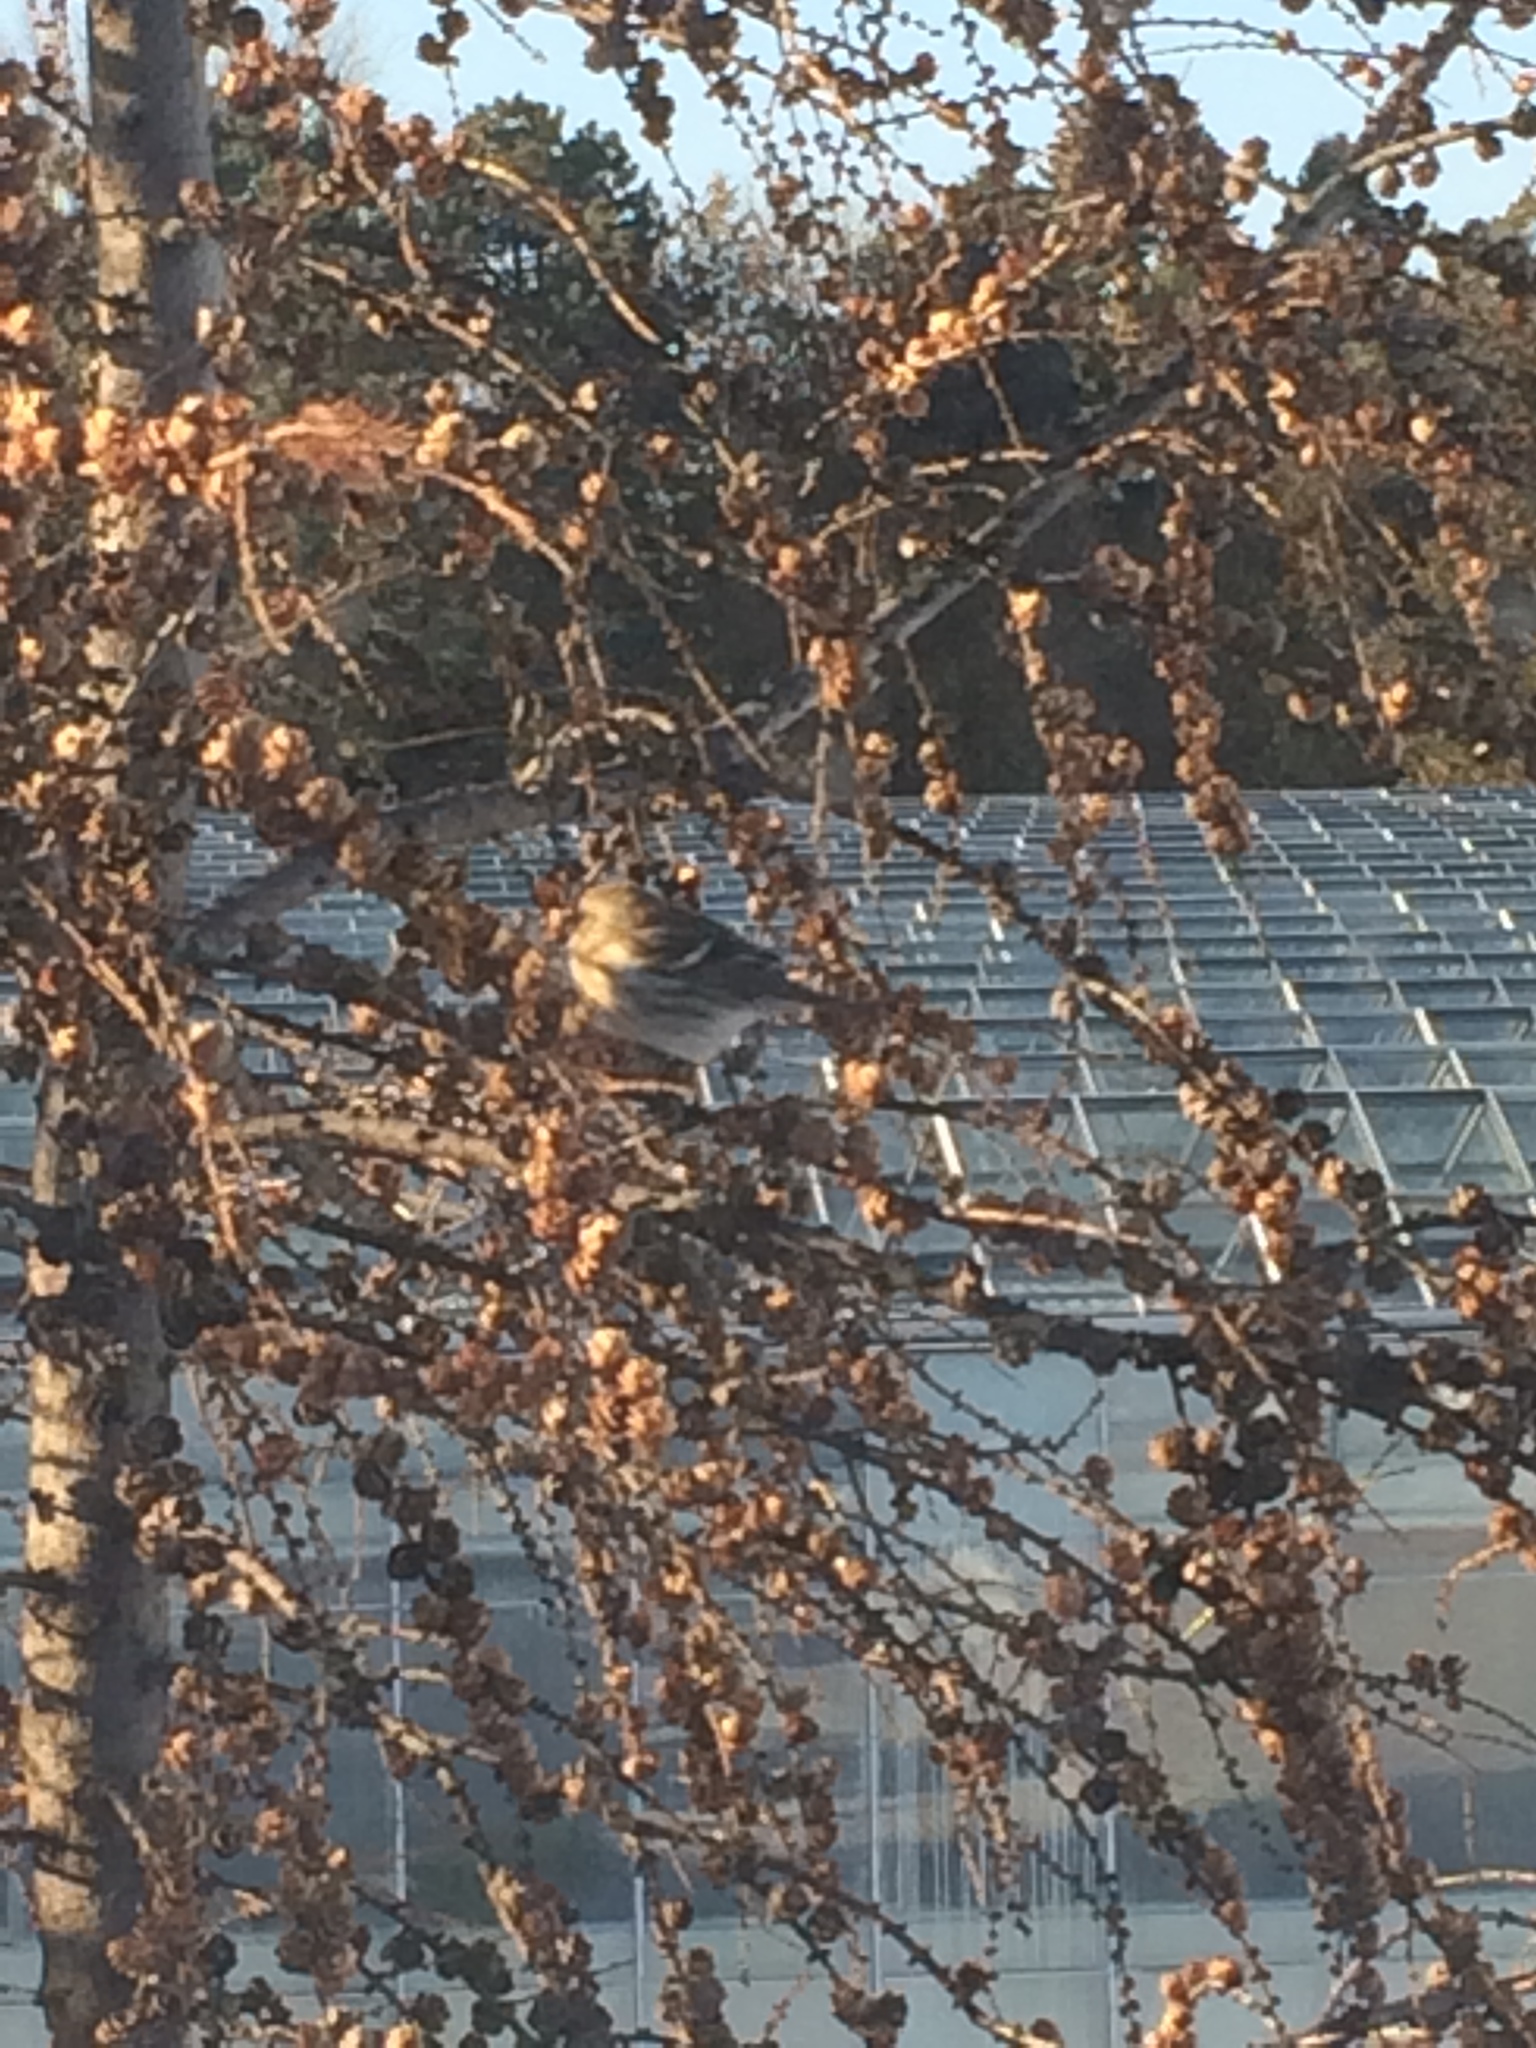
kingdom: Animalia
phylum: Chordata
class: Aves
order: Passeriformes
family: Fringillidae
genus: Acanthis
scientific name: Acanthis flammea
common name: Common redpoll
